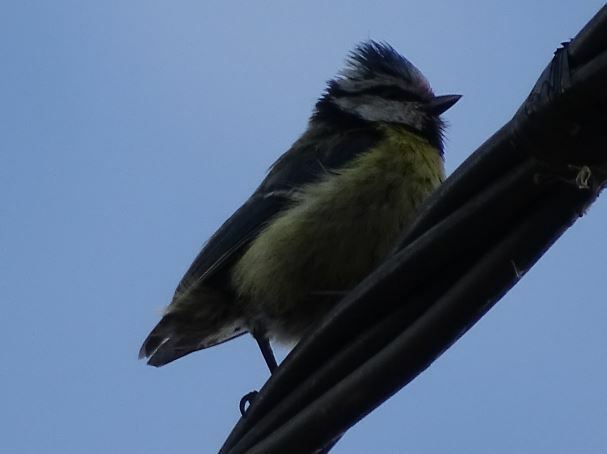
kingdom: Animalia
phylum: Chordata
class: Aves
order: Passeriformes
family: Paridae
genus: Cyanistes
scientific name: Cyanistes caeruleus
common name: Eurasian blue tit
